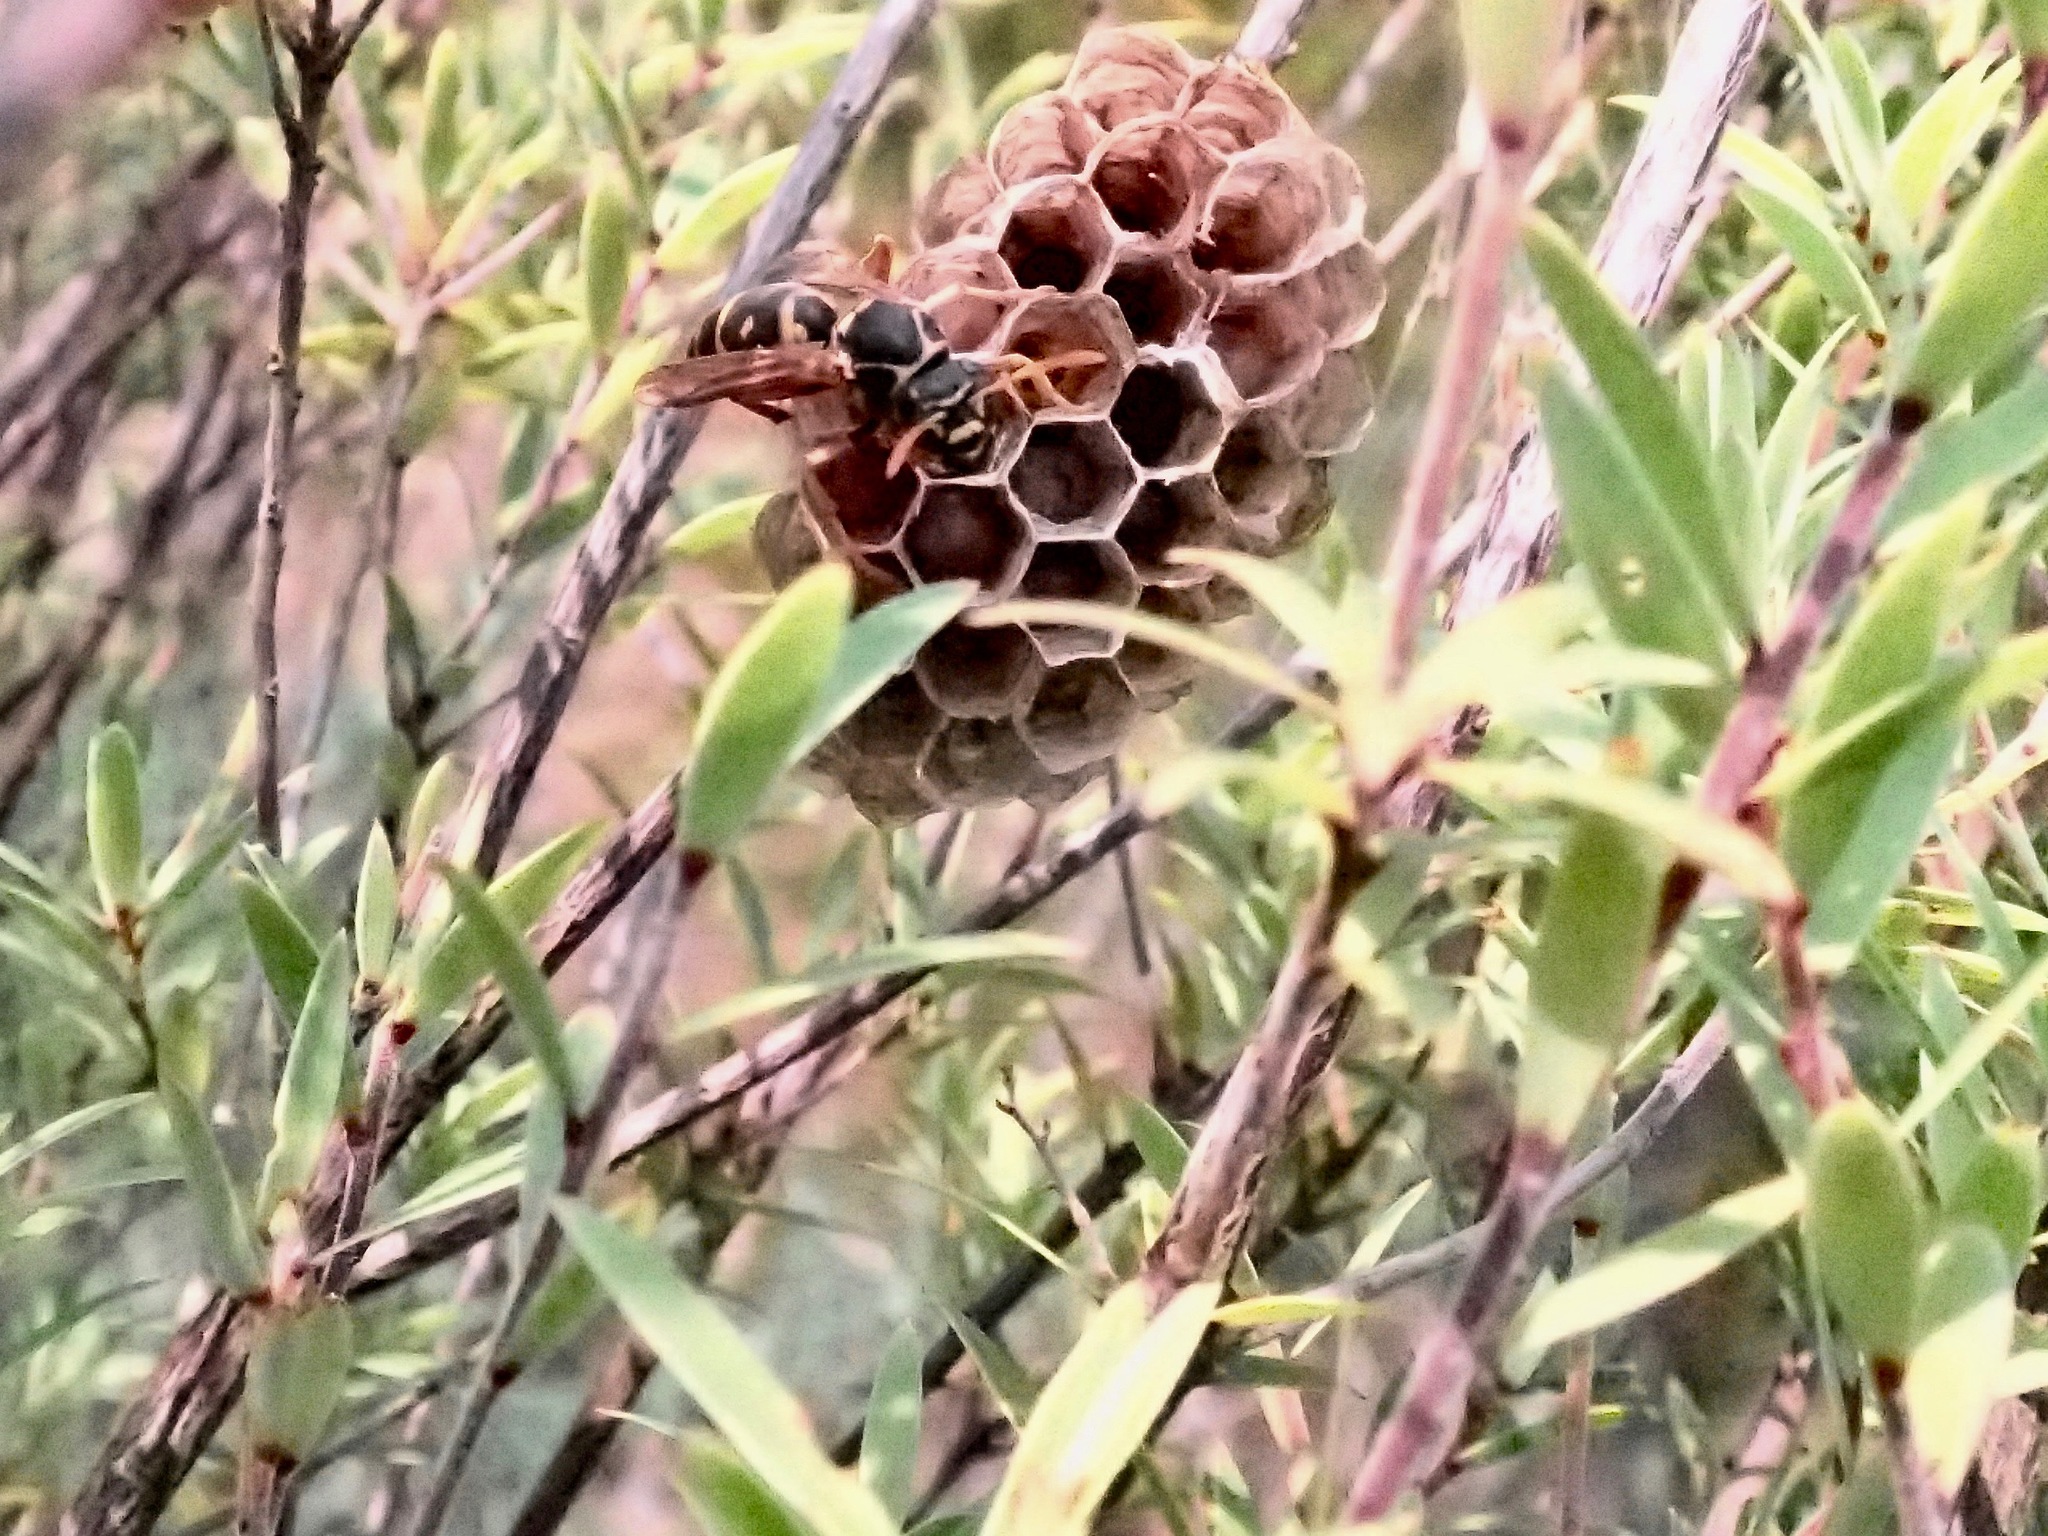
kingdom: Animalia
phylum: Arthropoda
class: Insecta
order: Hymenoptera
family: Eumenidae
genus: Polistes
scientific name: Polistes chinensis
